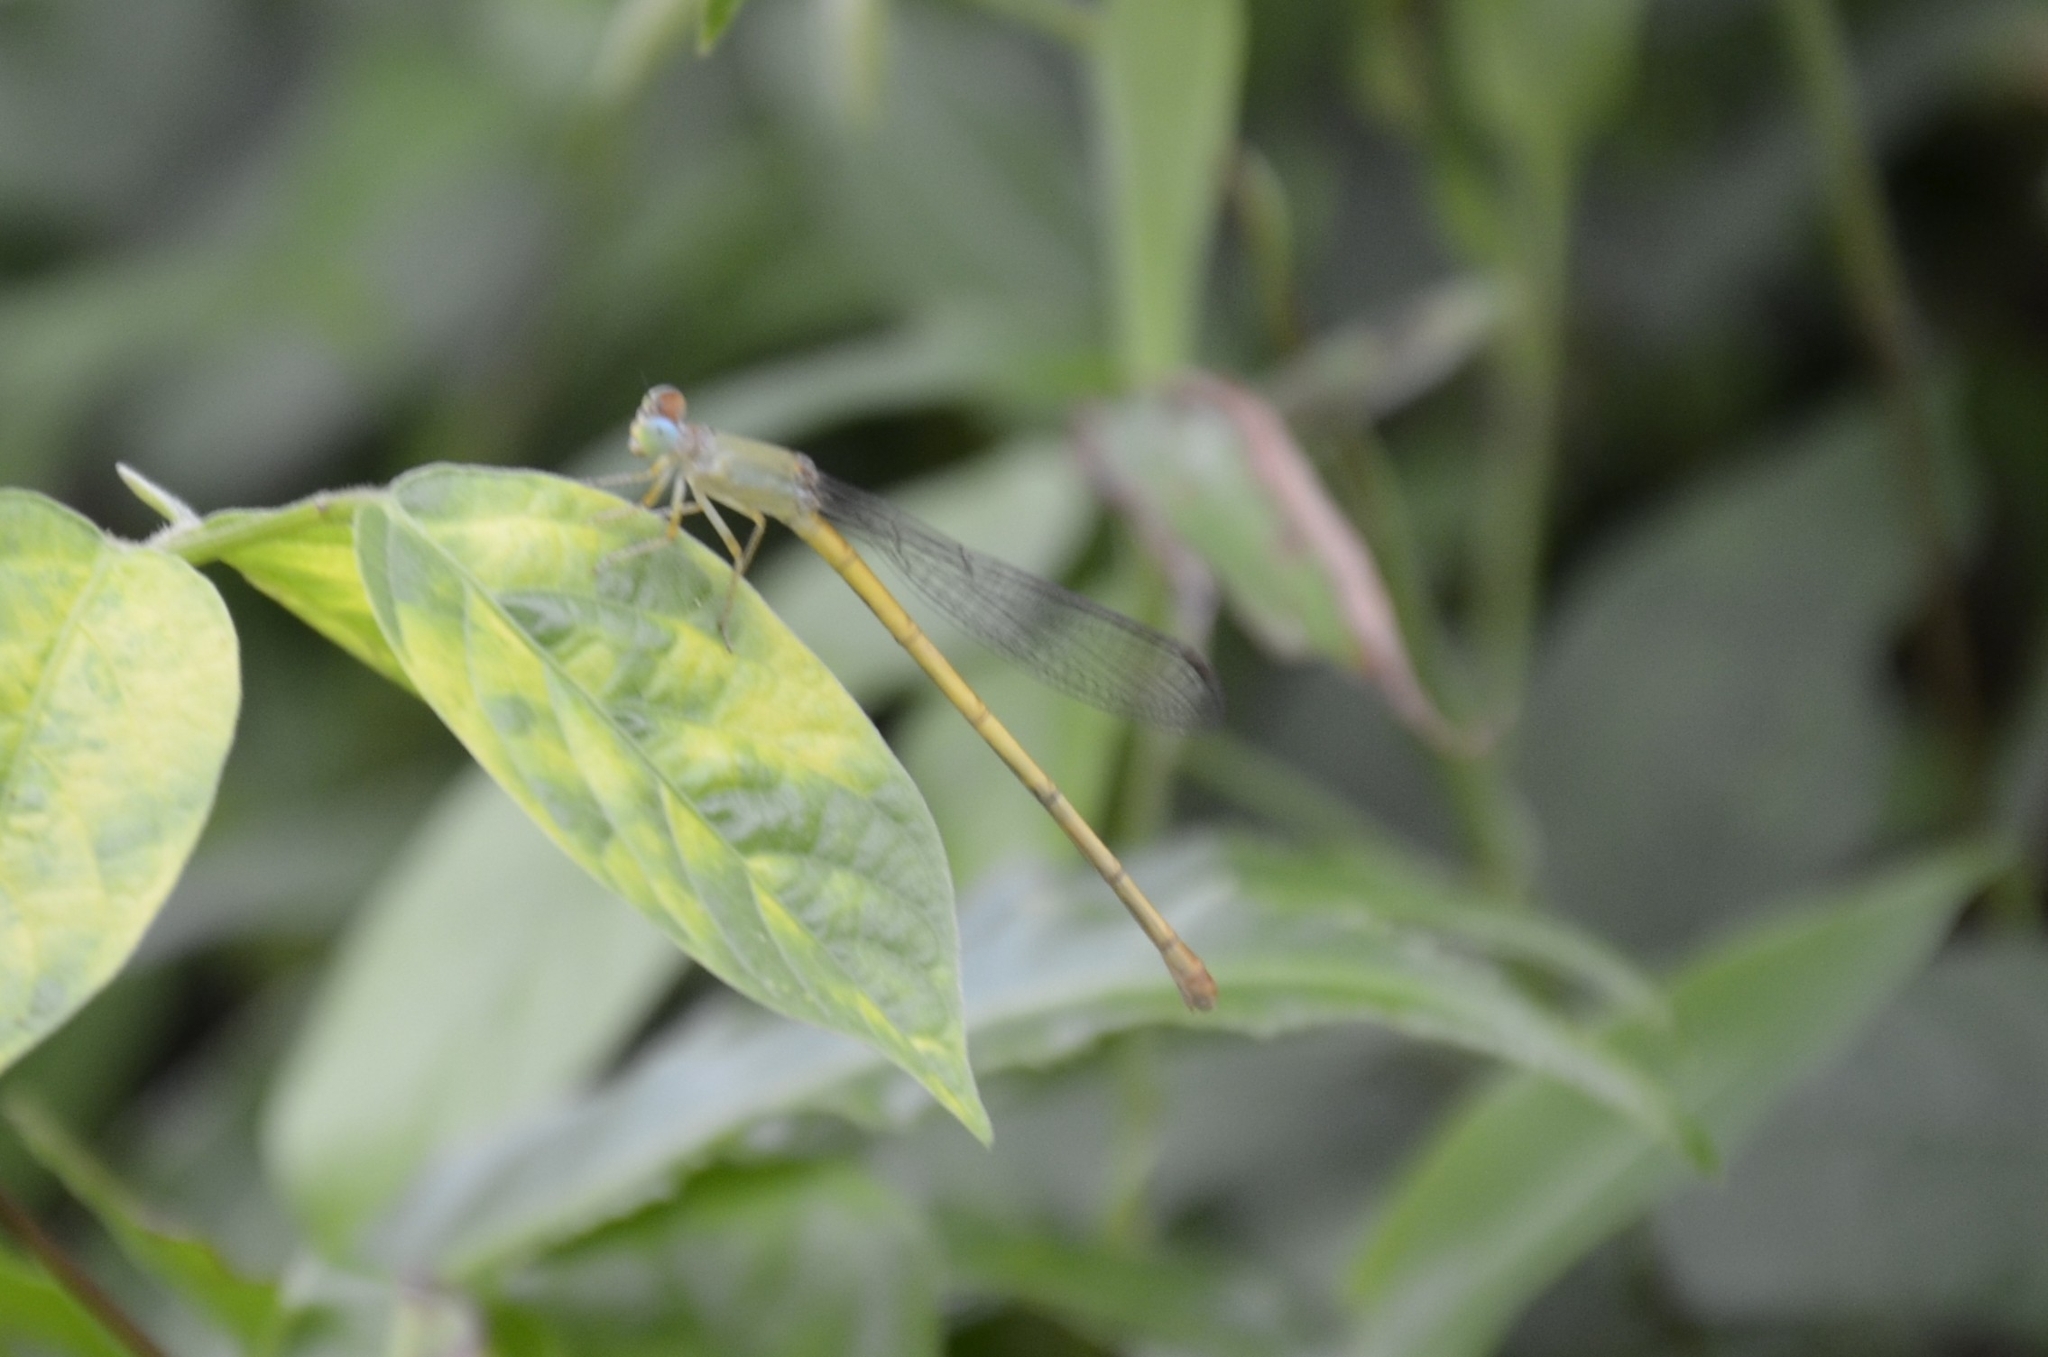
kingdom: Animalia
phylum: Arthropoda
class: Insecta
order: Odonata
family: Coenagrionidae
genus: Ceriagrion
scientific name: Ceriagrion coromandelianum
